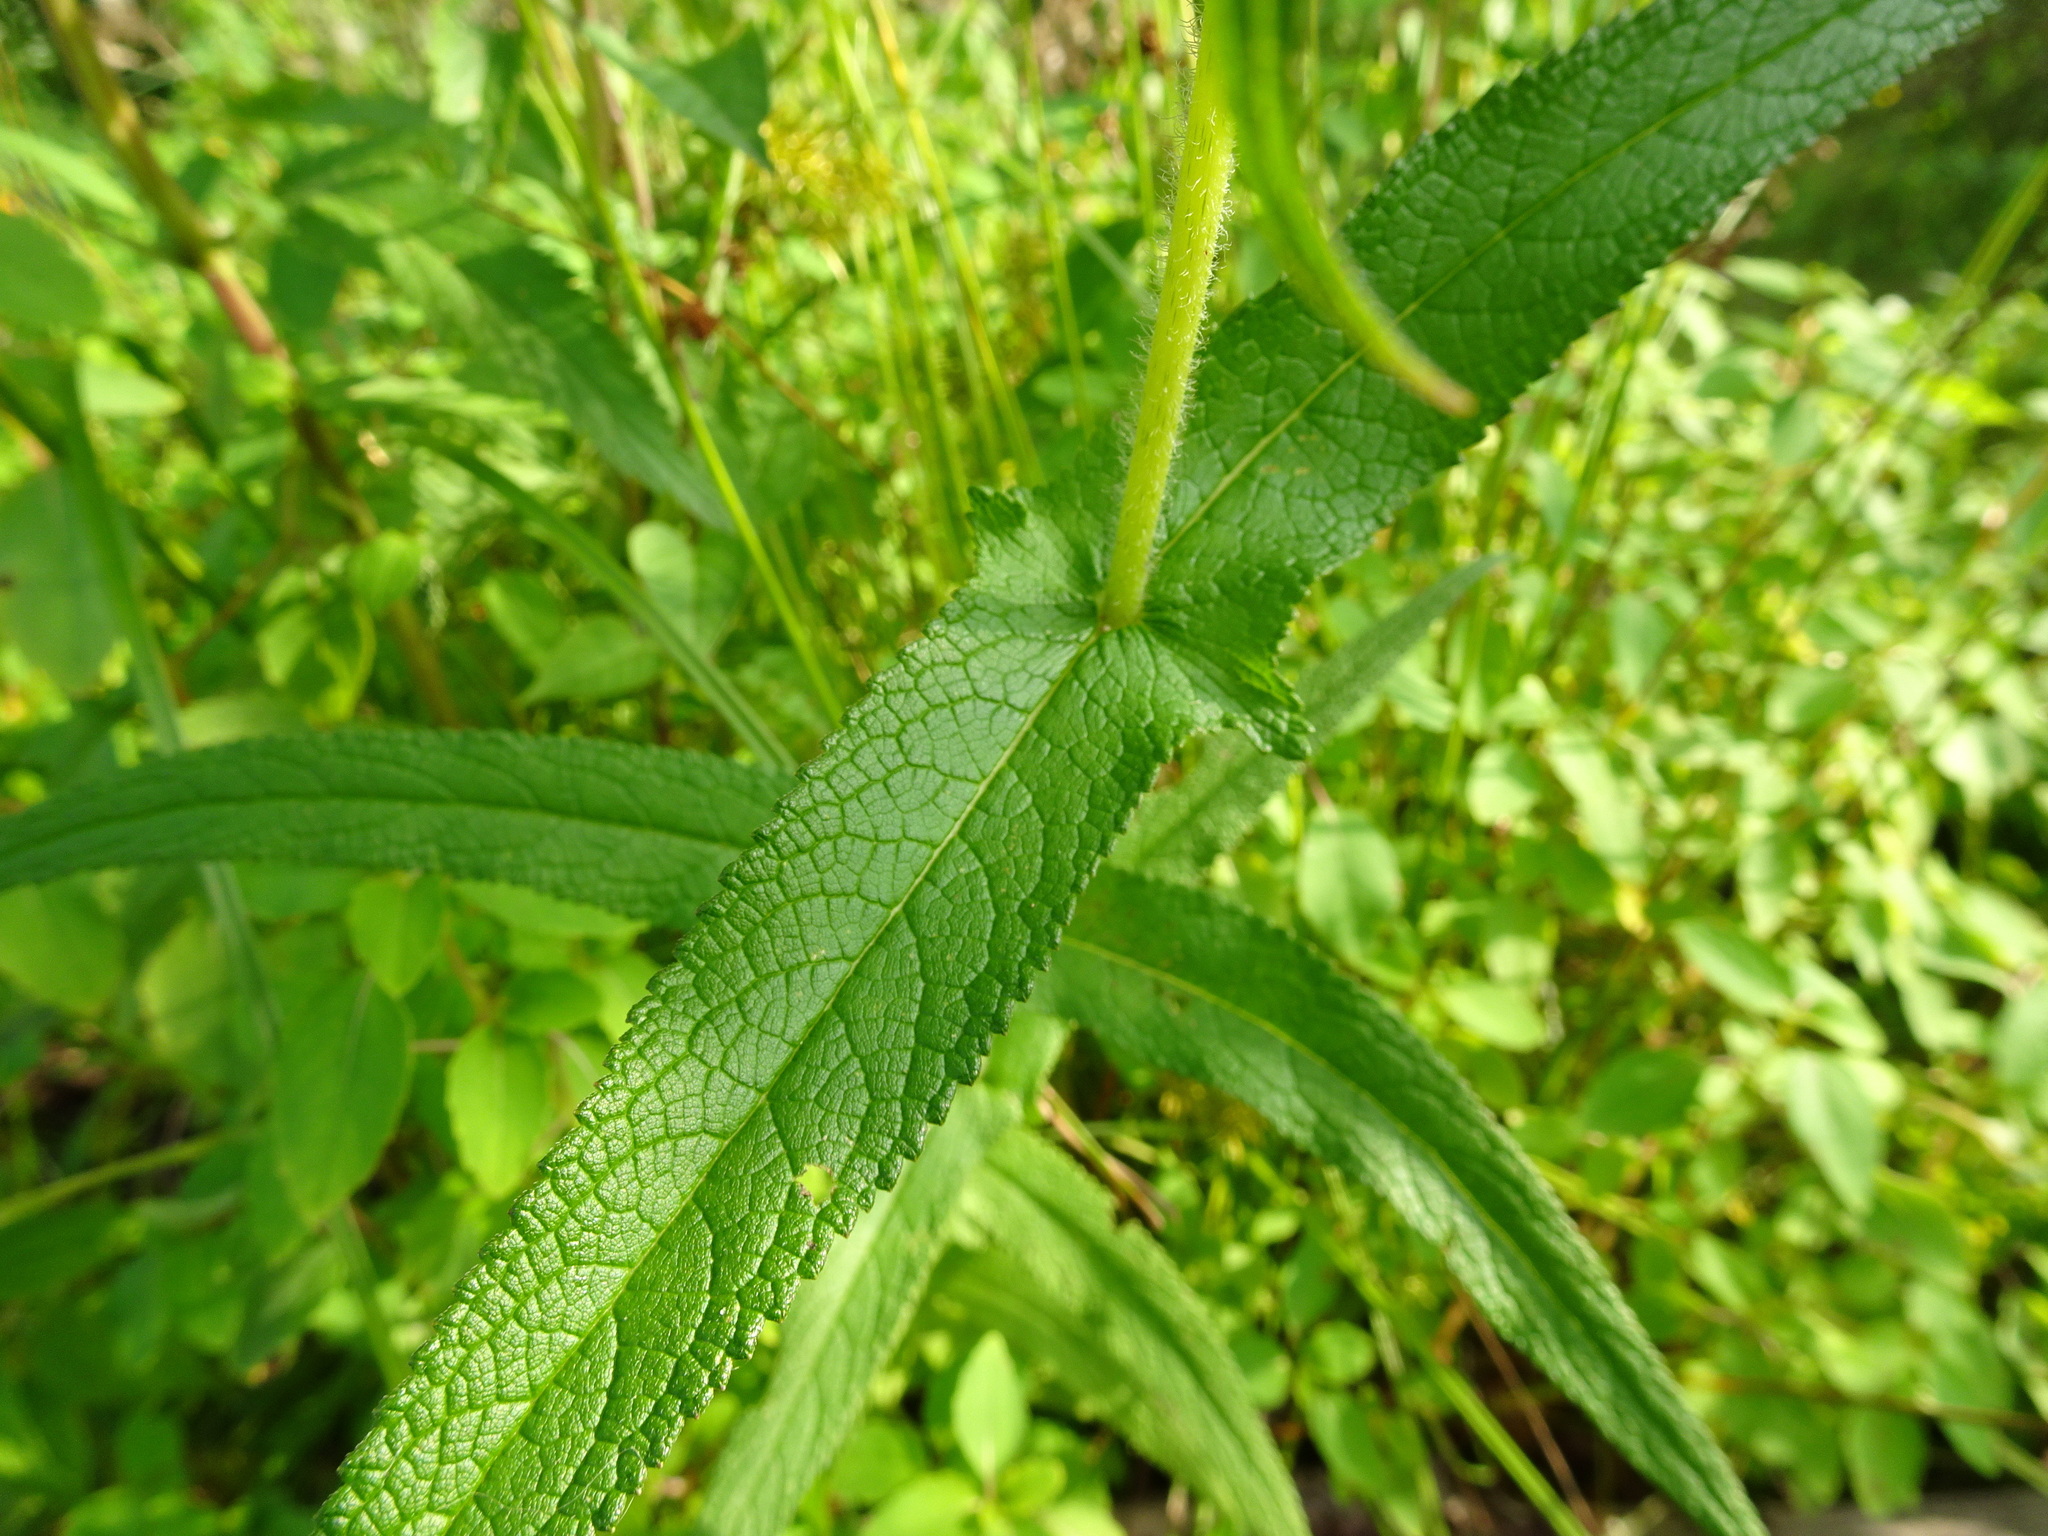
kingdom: Plantae
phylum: Tracheophyta
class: Magnoliopsida
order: Asterales
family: Asteraceae
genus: Eupatorium
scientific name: Eupatorium perfoliatum
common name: Boneset
